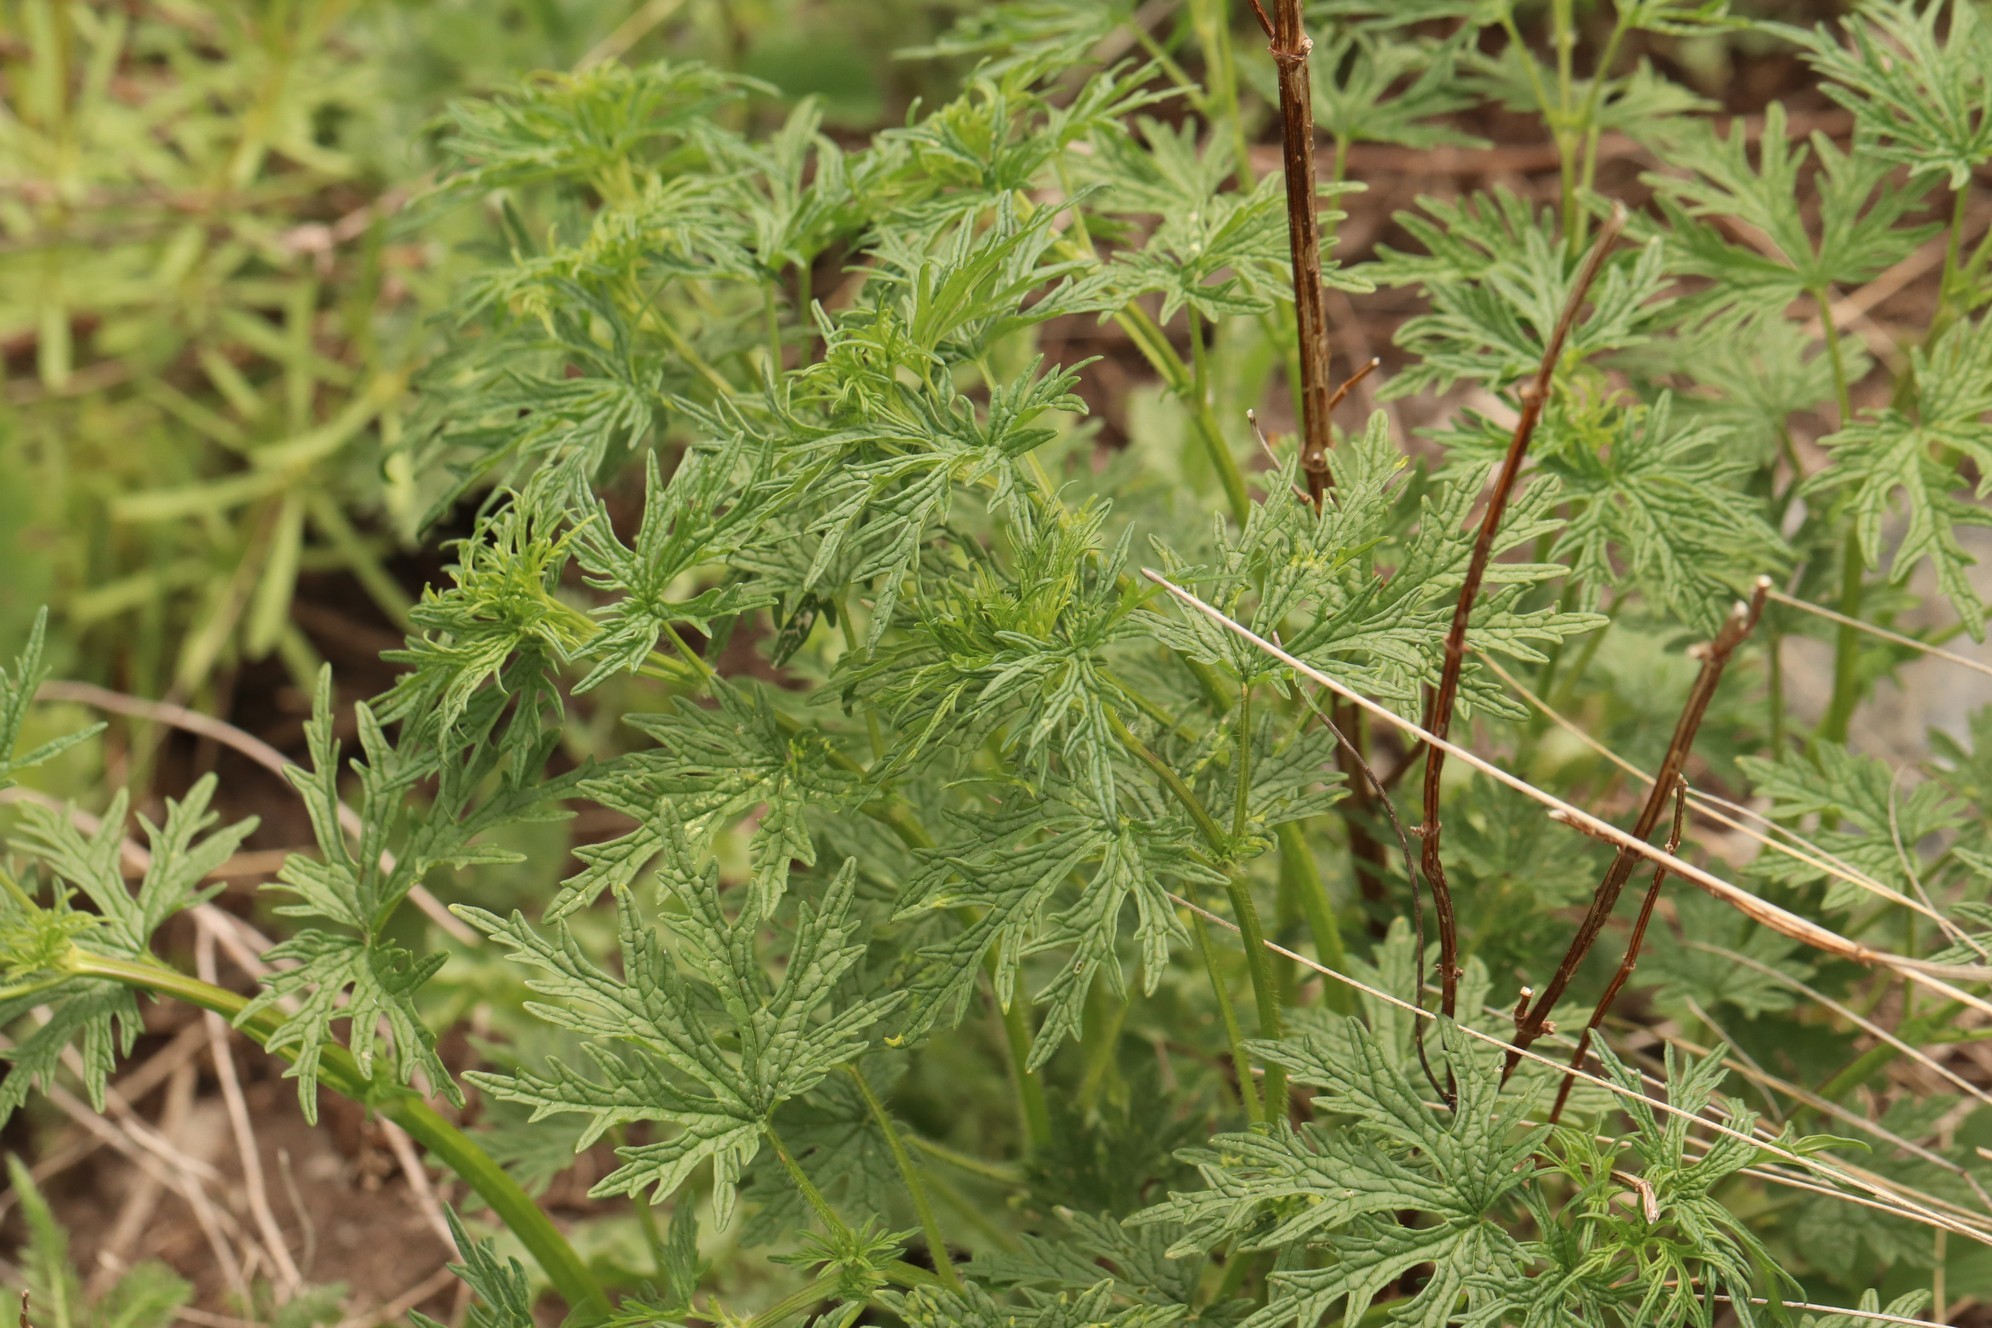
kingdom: Plantae
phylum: Tracheophyta
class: Magnoliopsida
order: Lamiales
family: Lamiaceae
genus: Leonurus
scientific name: Leonurus tataricus
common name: Chinese motherwort
